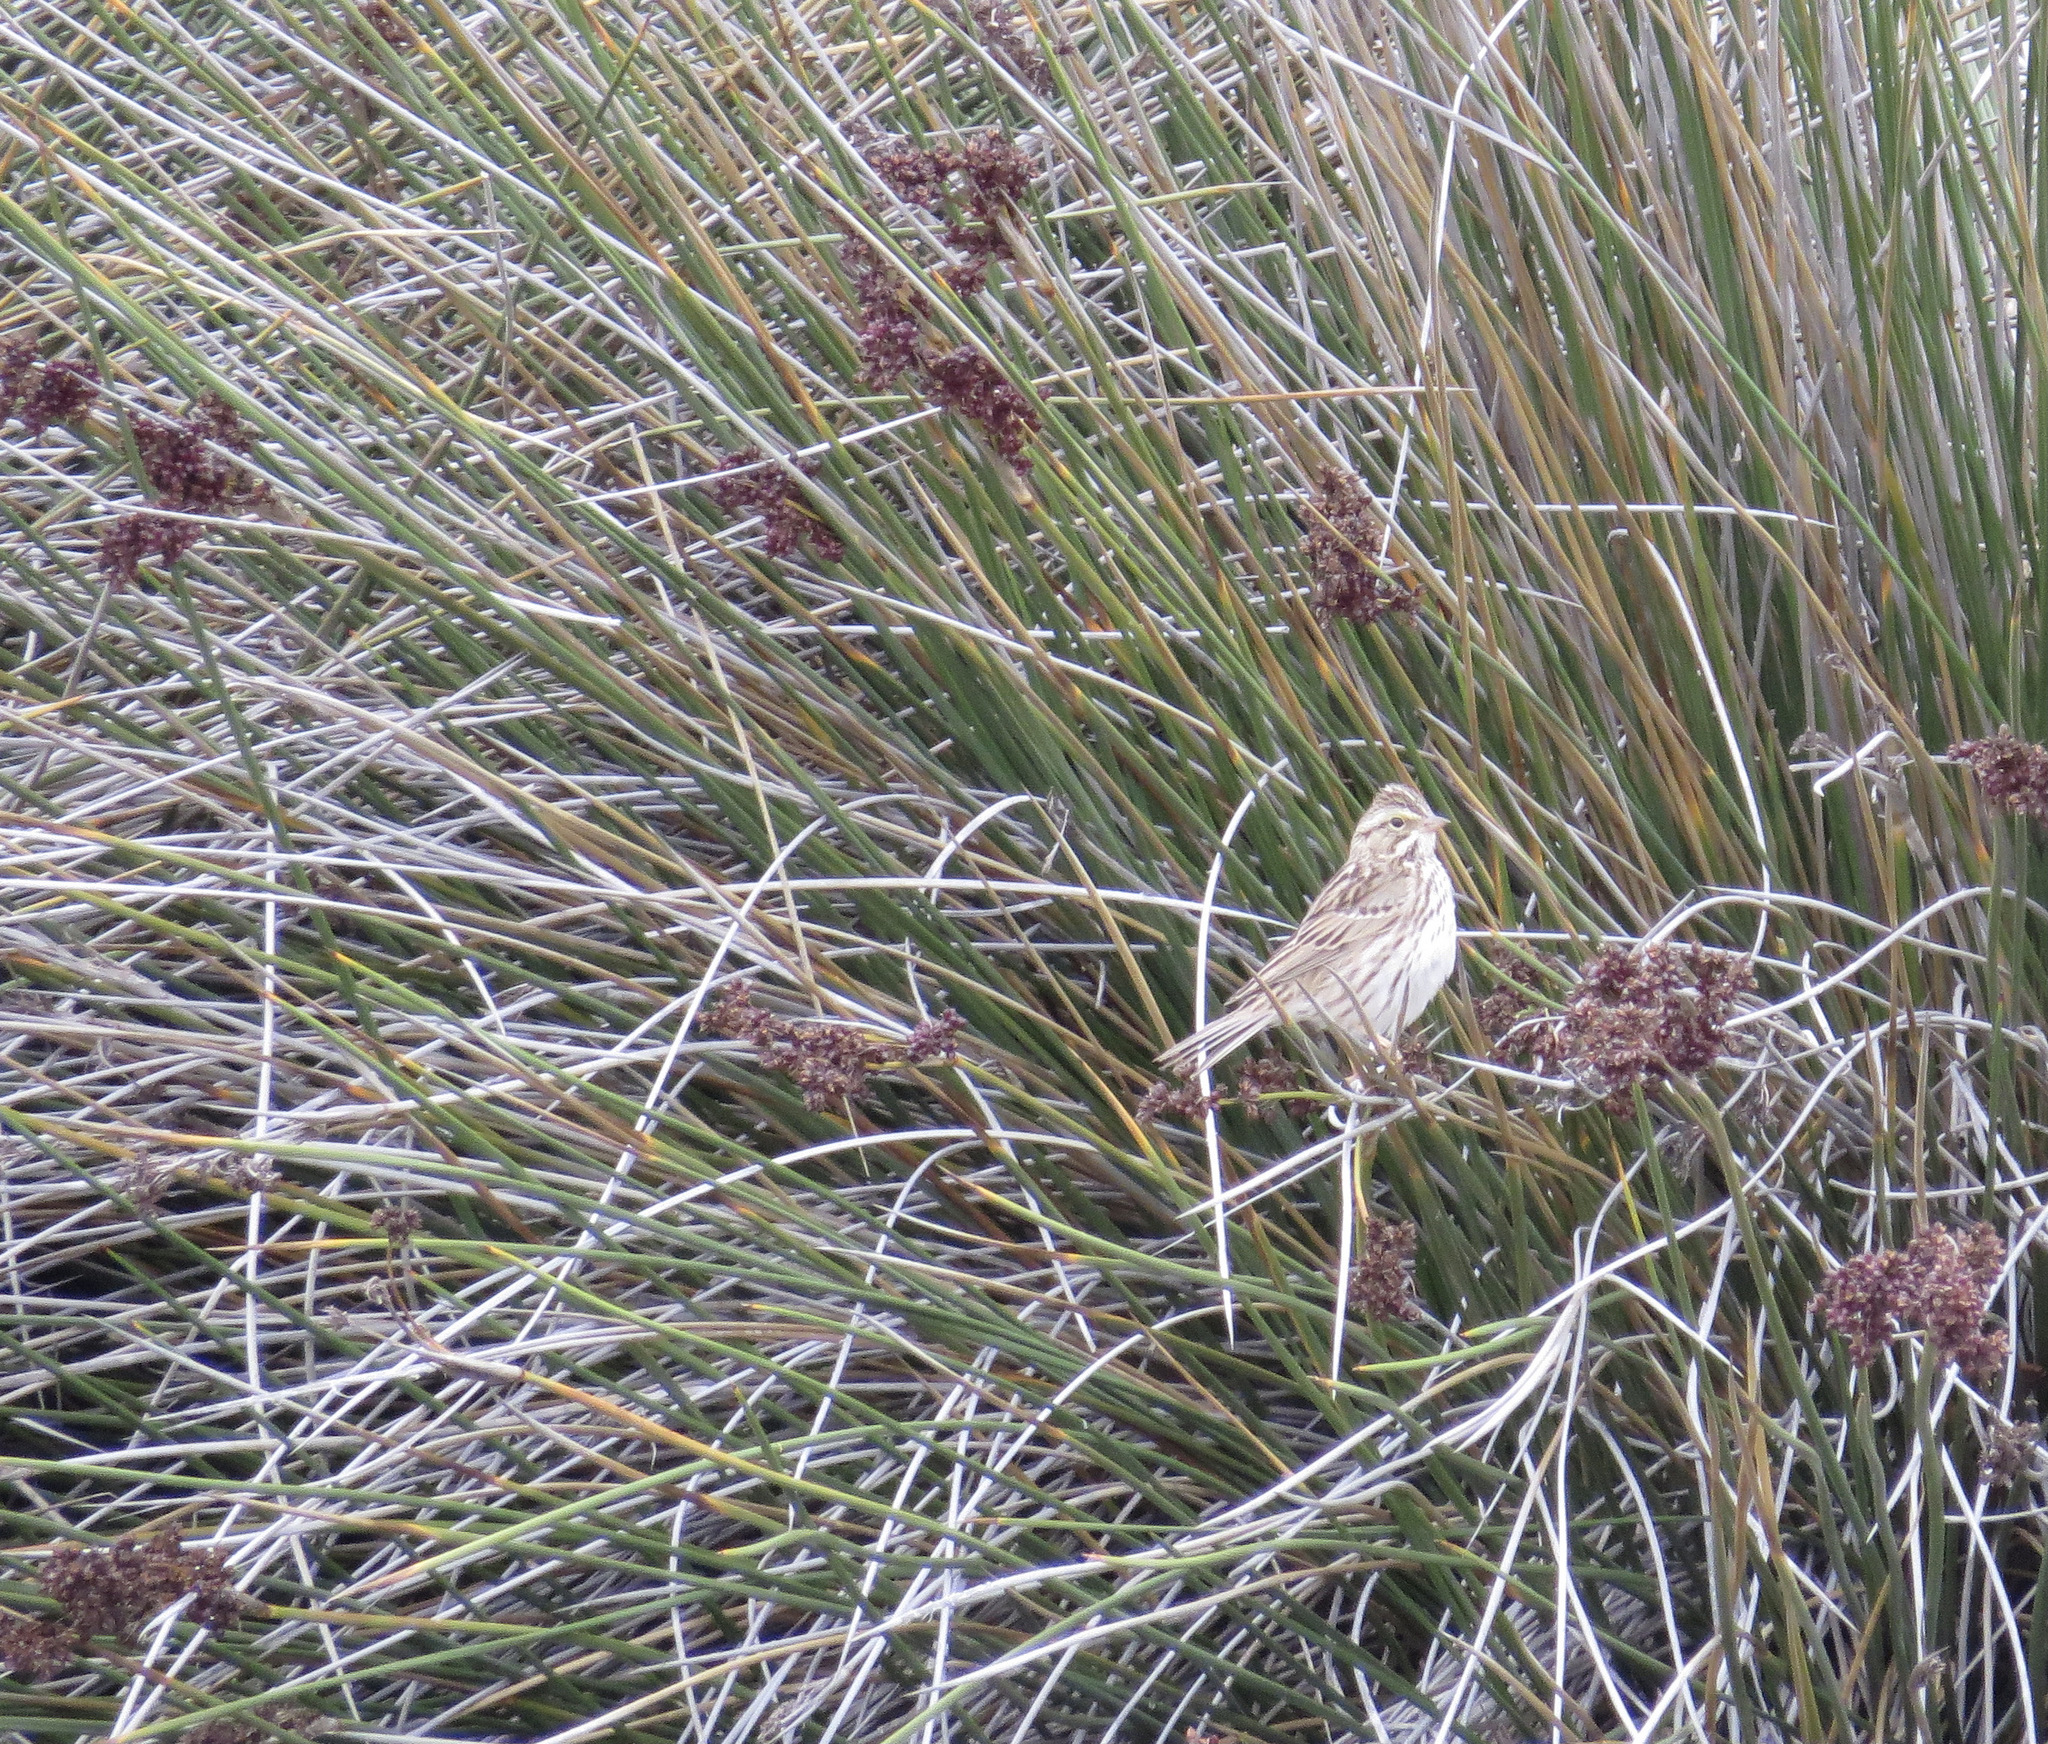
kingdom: Animalia
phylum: Chordata
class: Aves
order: Passeriformes
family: Passerellidae
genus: Passerculus
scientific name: Passerculus sandwichensis
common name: Savannah sparrow
